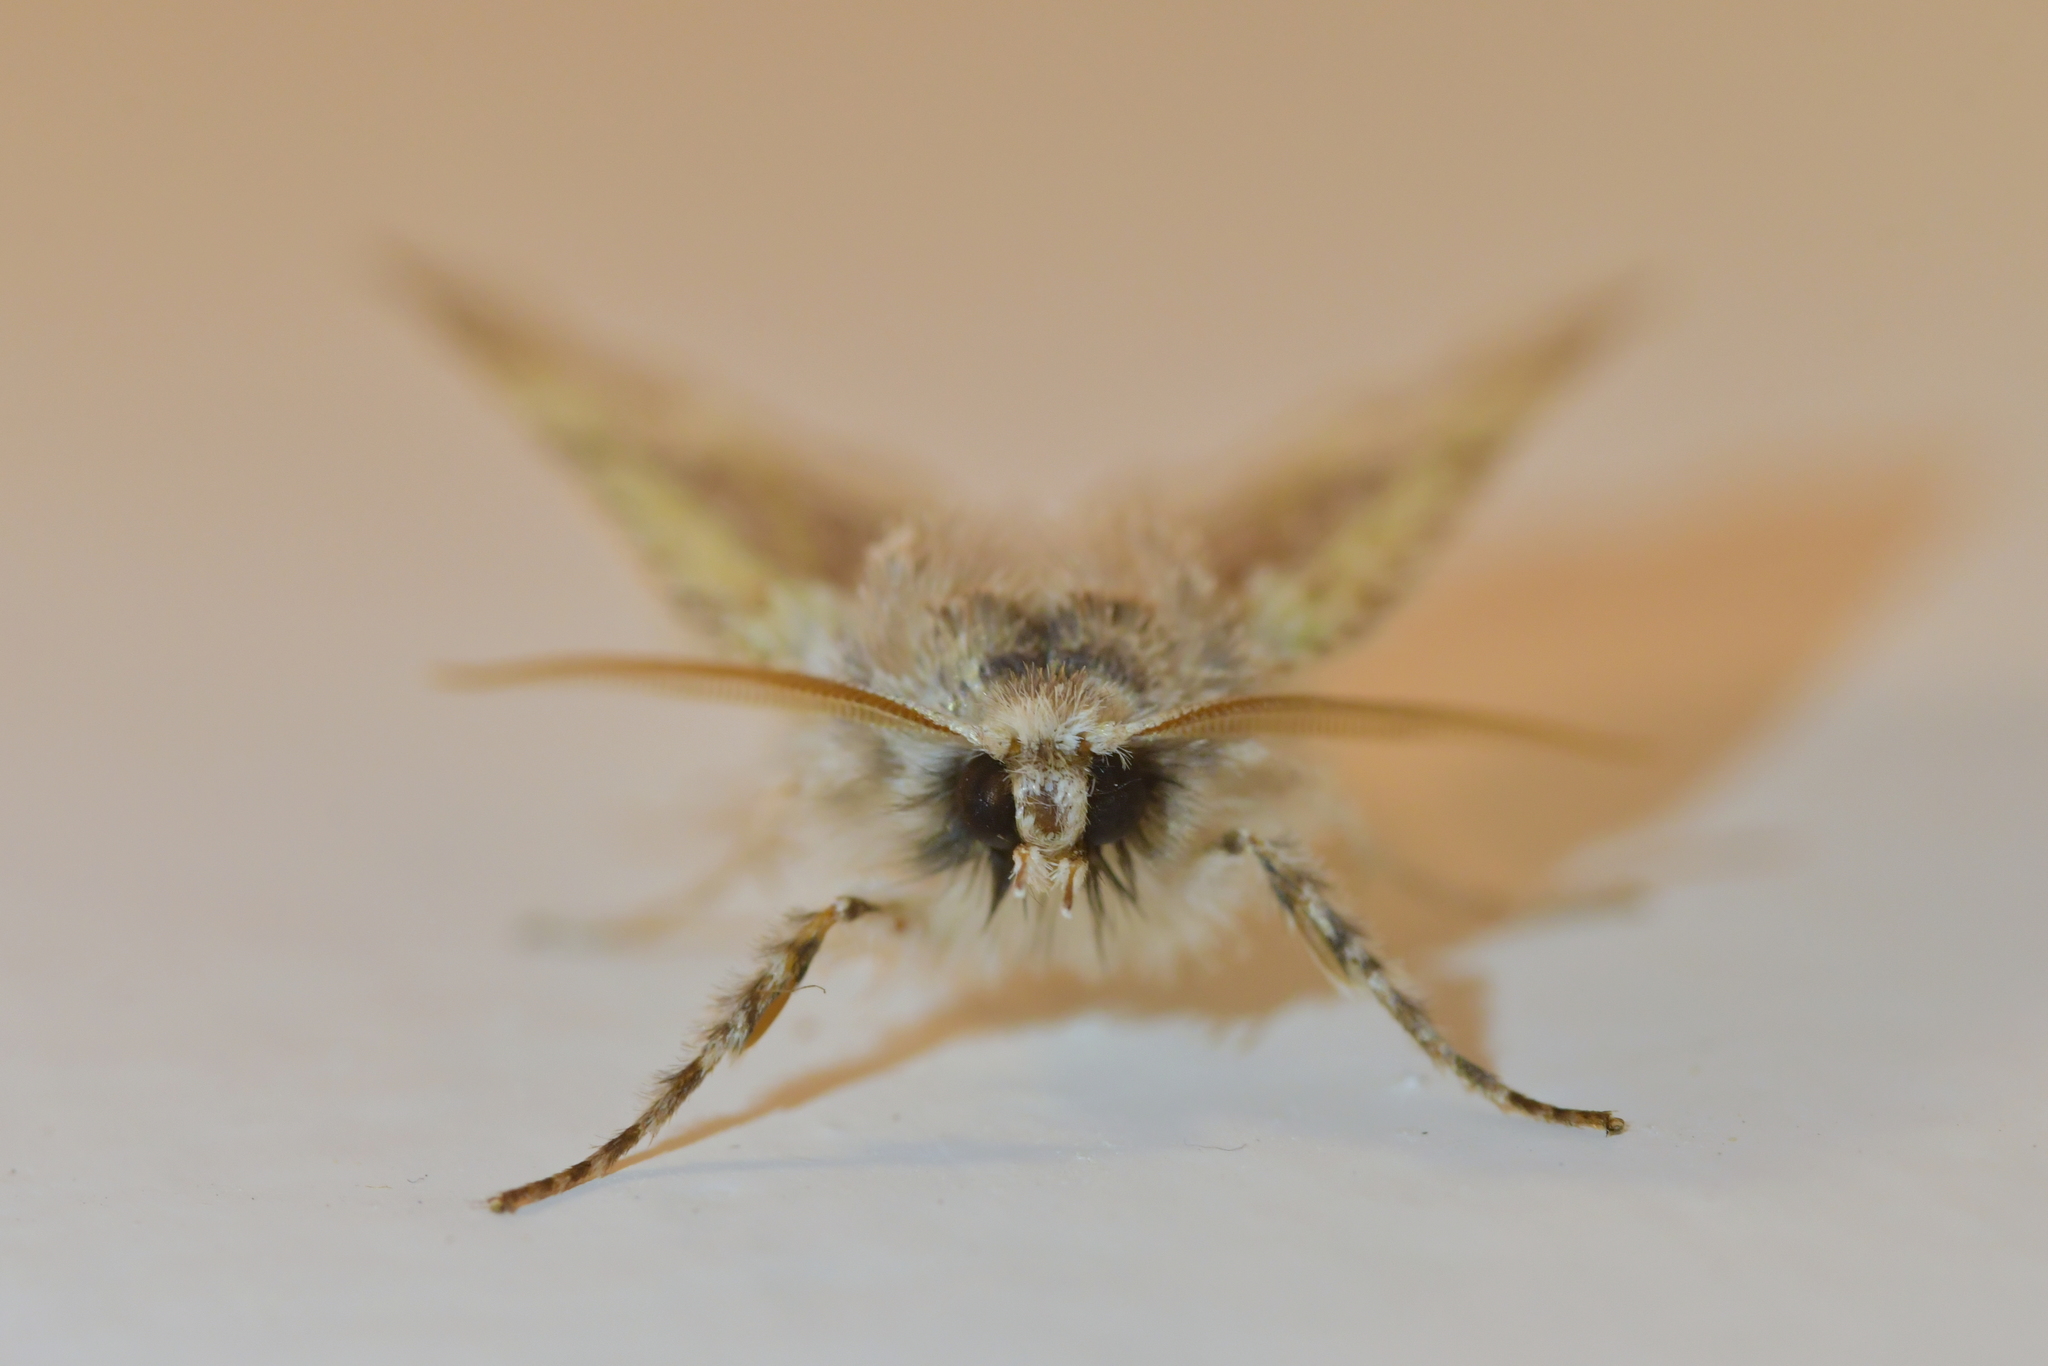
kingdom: Animalia
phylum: Arthropoda
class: Insecta
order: Lepidoptera
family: Geometridae
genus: Declana
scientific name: Declana floccosa
